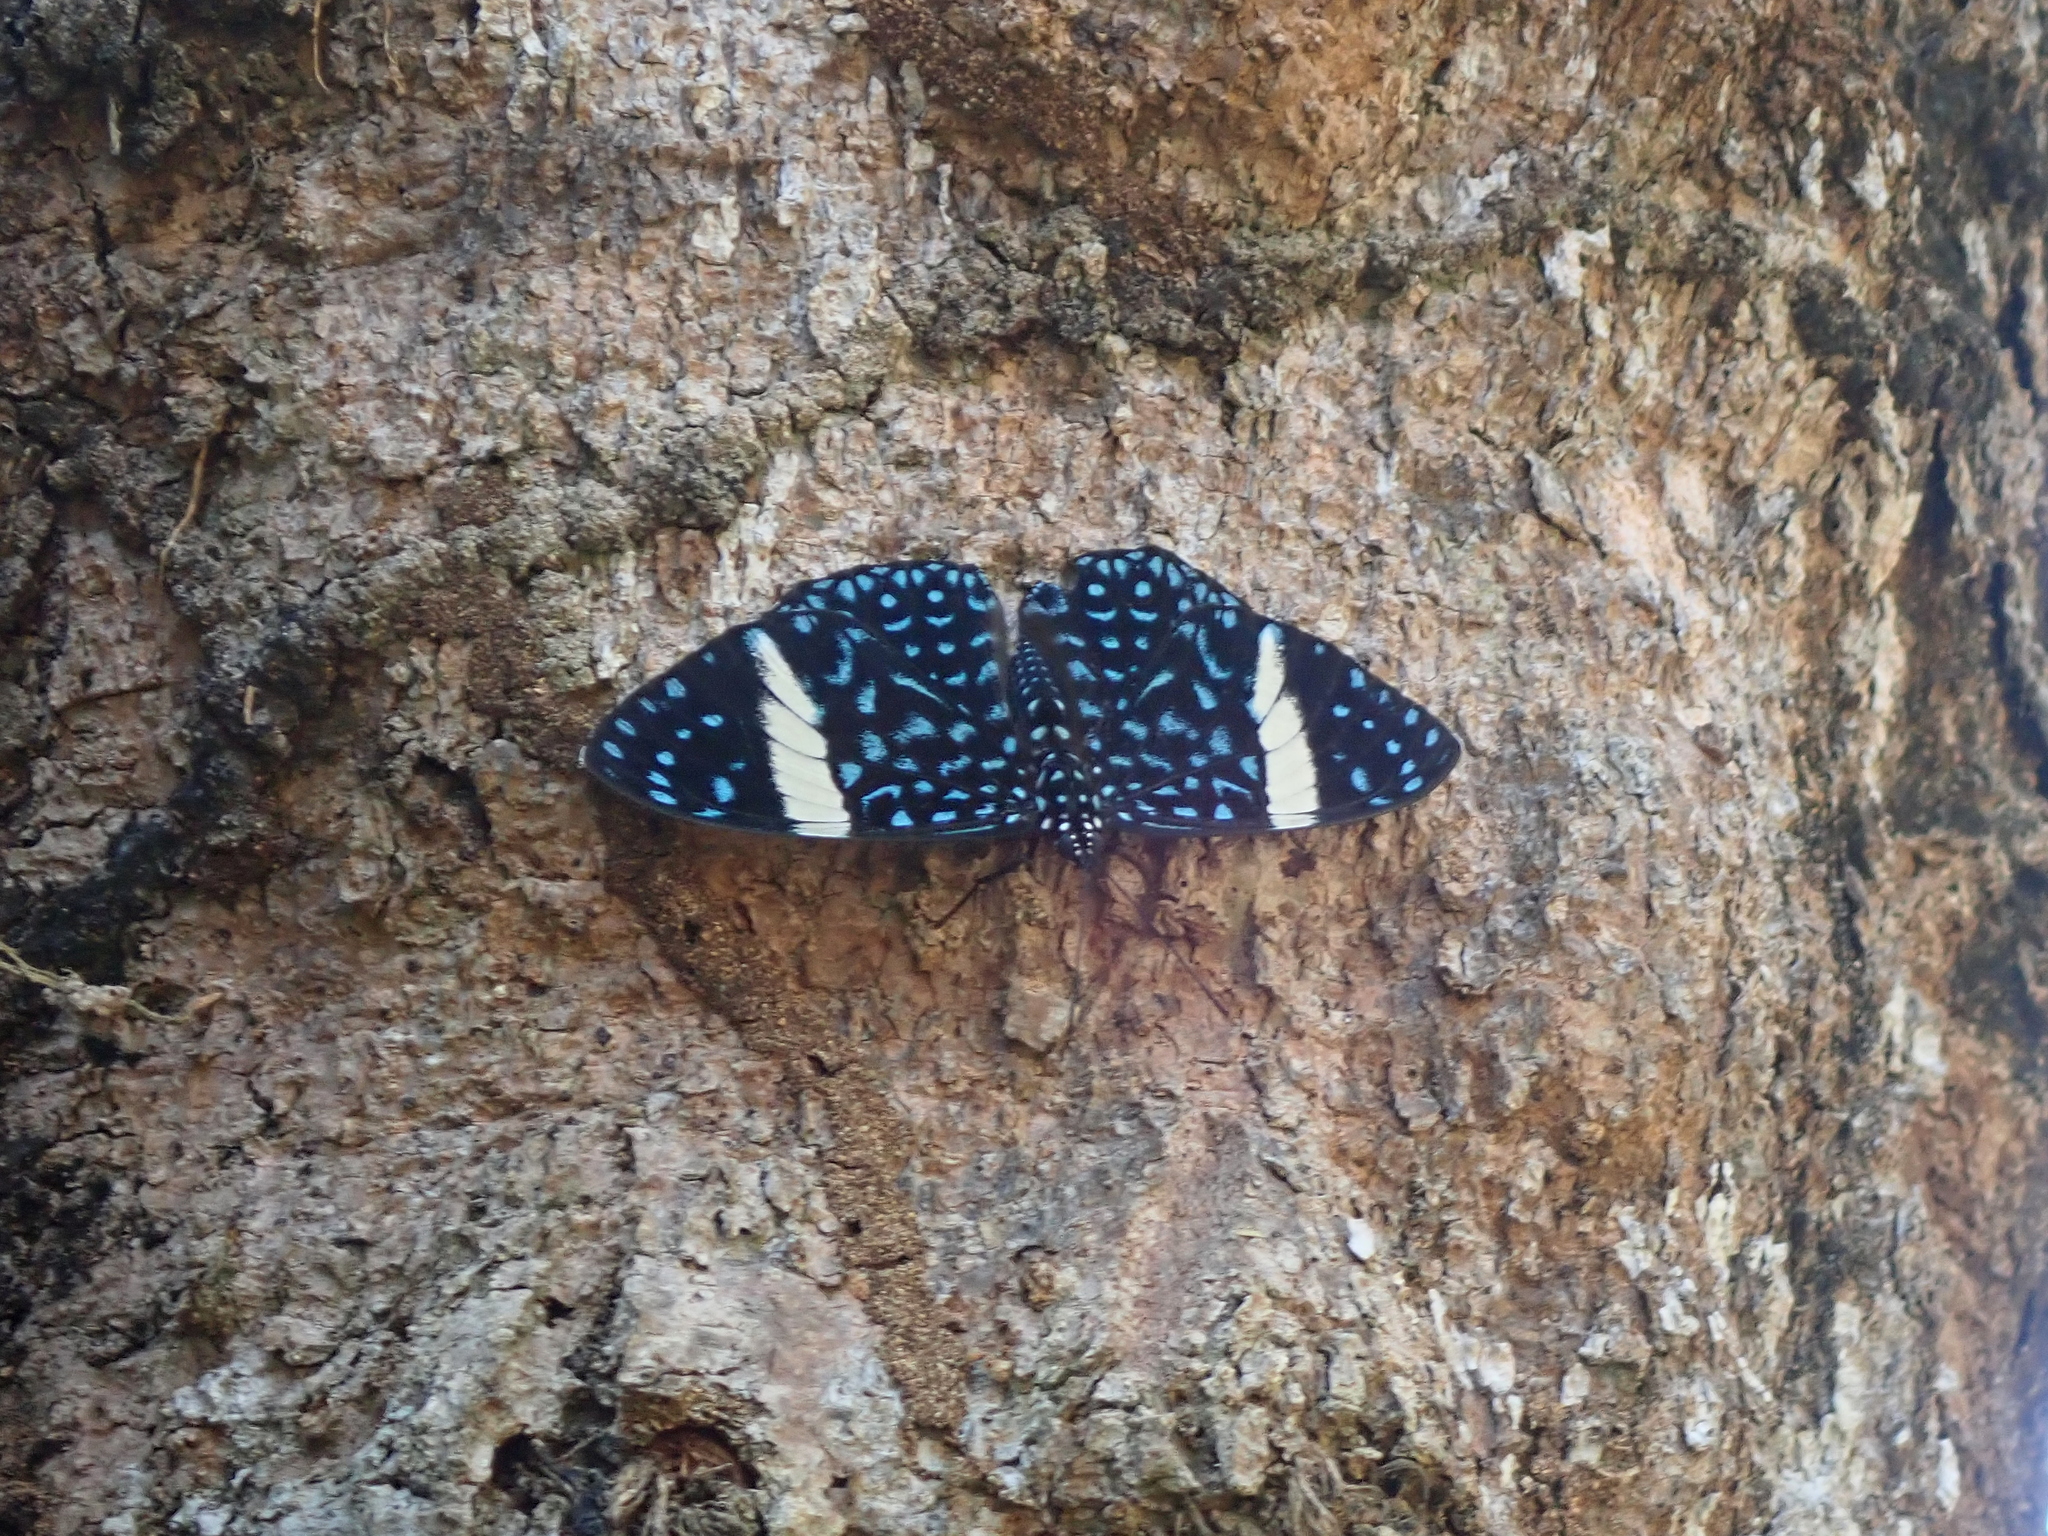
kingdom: Animalia
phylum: Arthropoda
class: Insecta
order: Lepidoptera
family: Nymphalidae
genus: Hamadryas
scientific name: Hamadryas laodamia
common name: Starry night cracker
